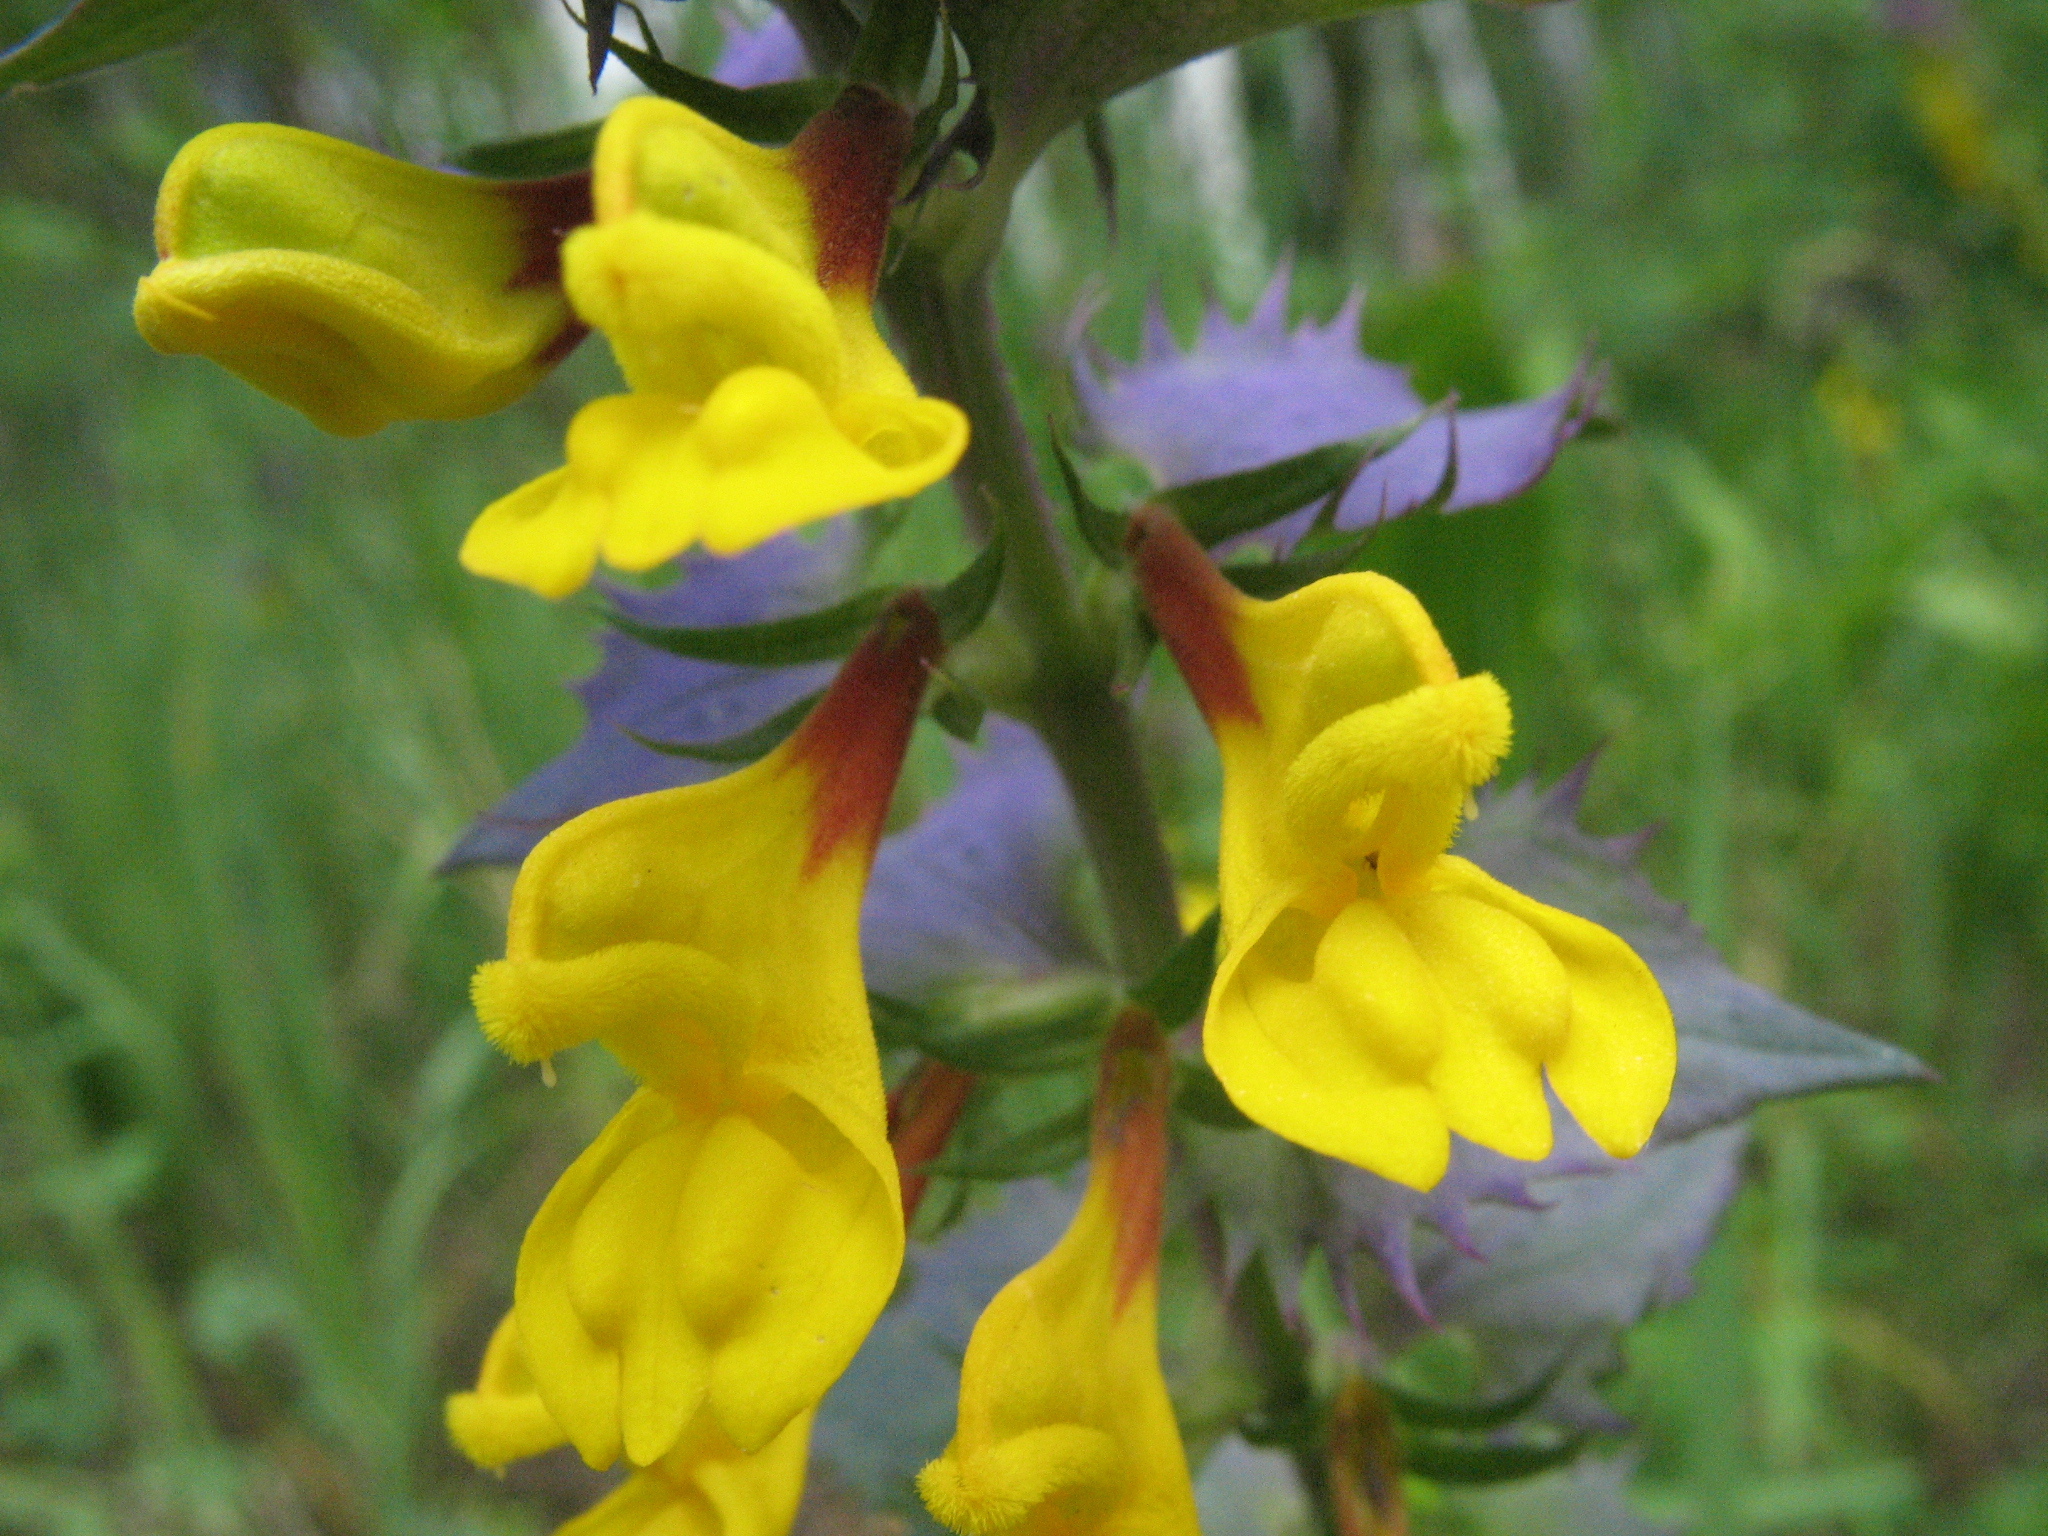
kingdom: Plantae
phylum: Tracheophyta
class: Magnoliopsida
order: Lamiales
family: Orobanchaceae
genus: Melampyrum
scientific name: Melampyrum nemorosum
